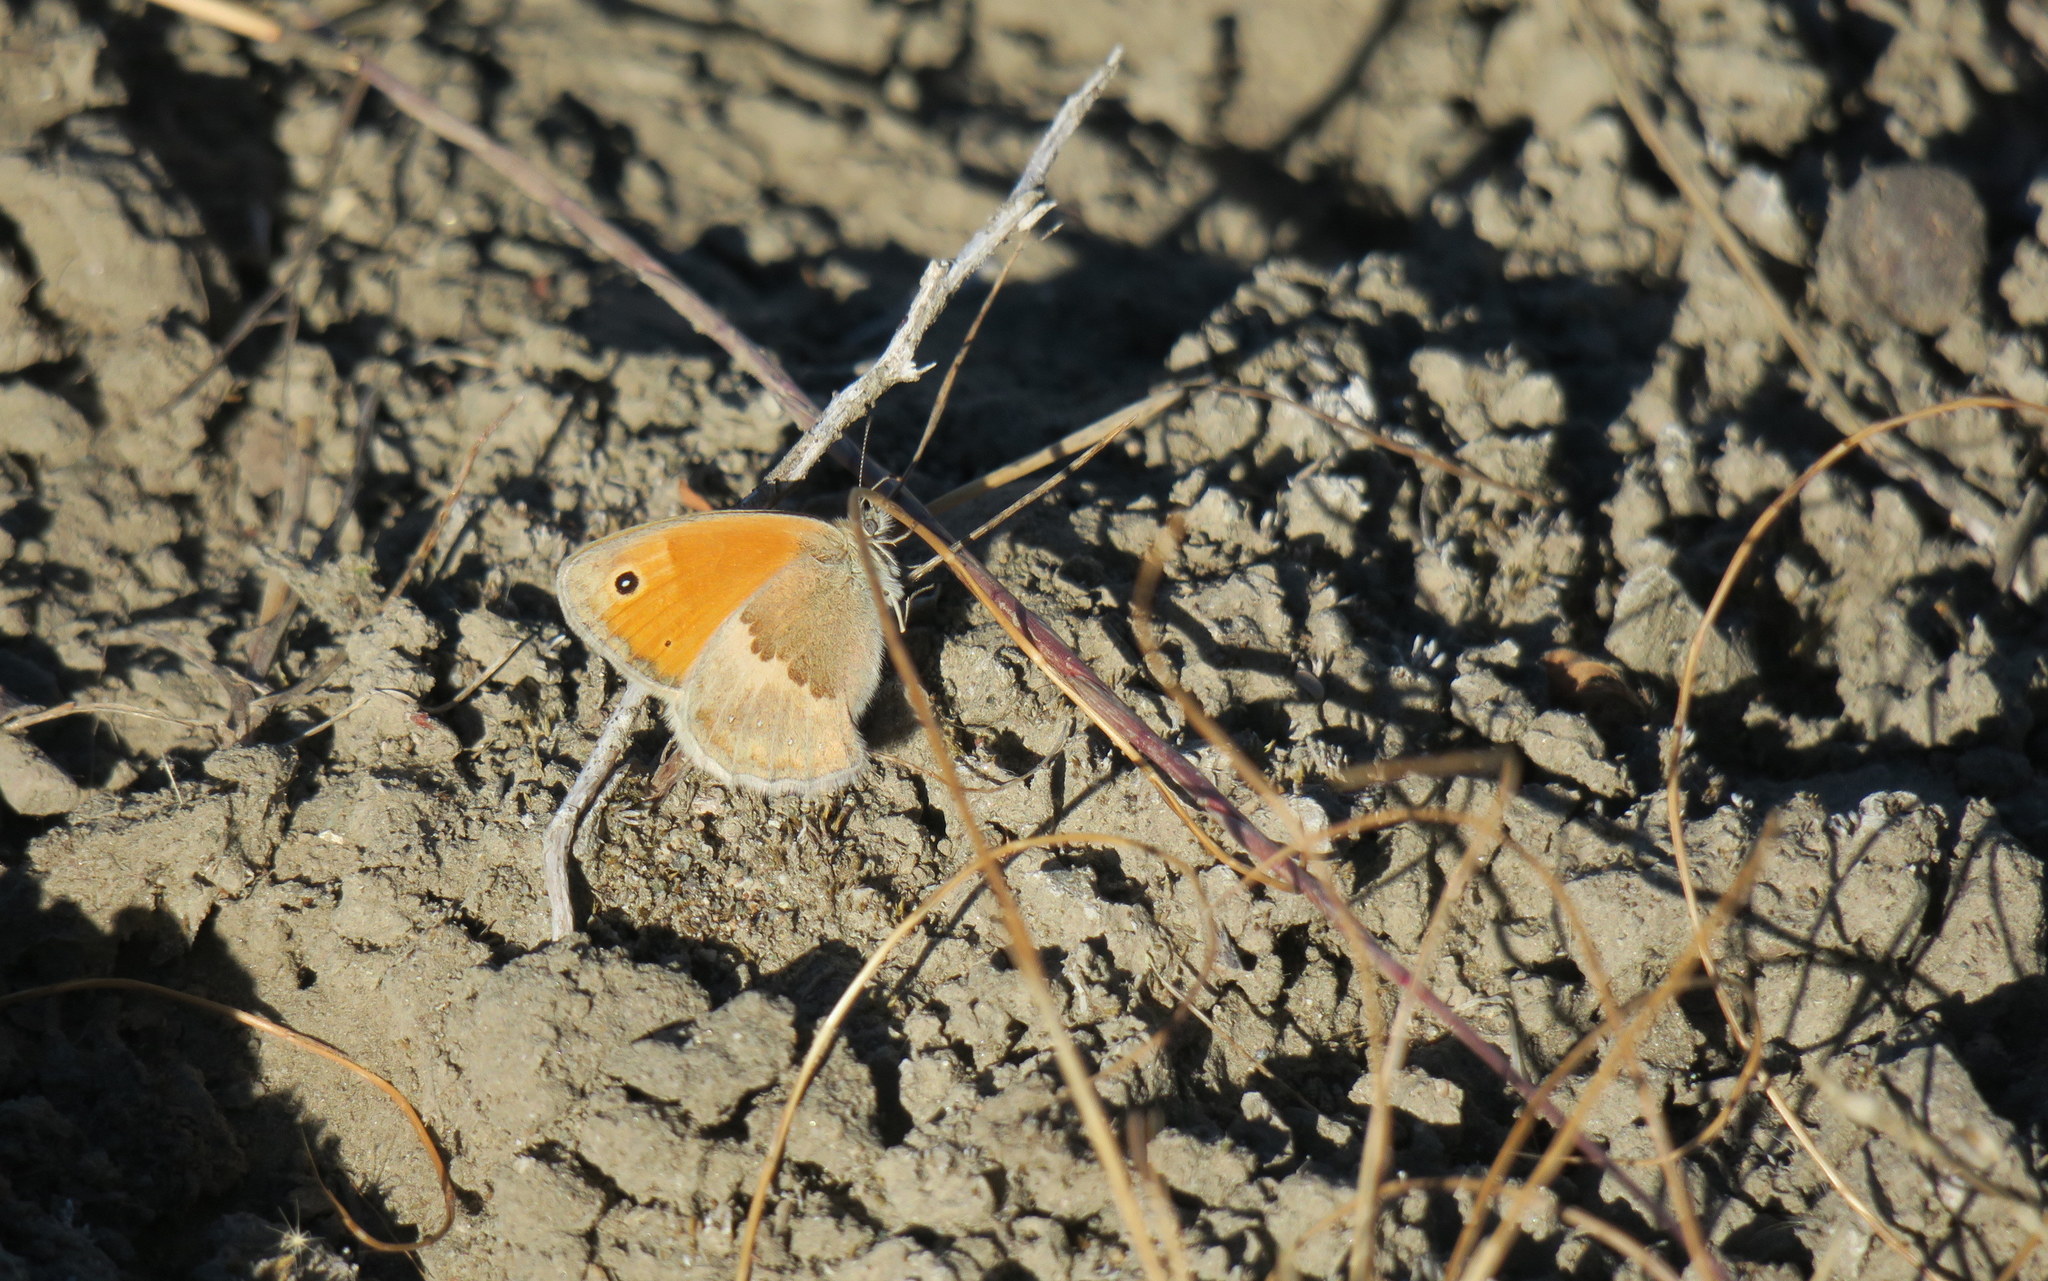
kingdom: Animalia
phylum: Arthropoda
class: Insecta
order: Lepidoptera
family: Nymphalidae
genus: Coenonympha
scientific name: Coenonympha pamphilus
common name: Small heath
